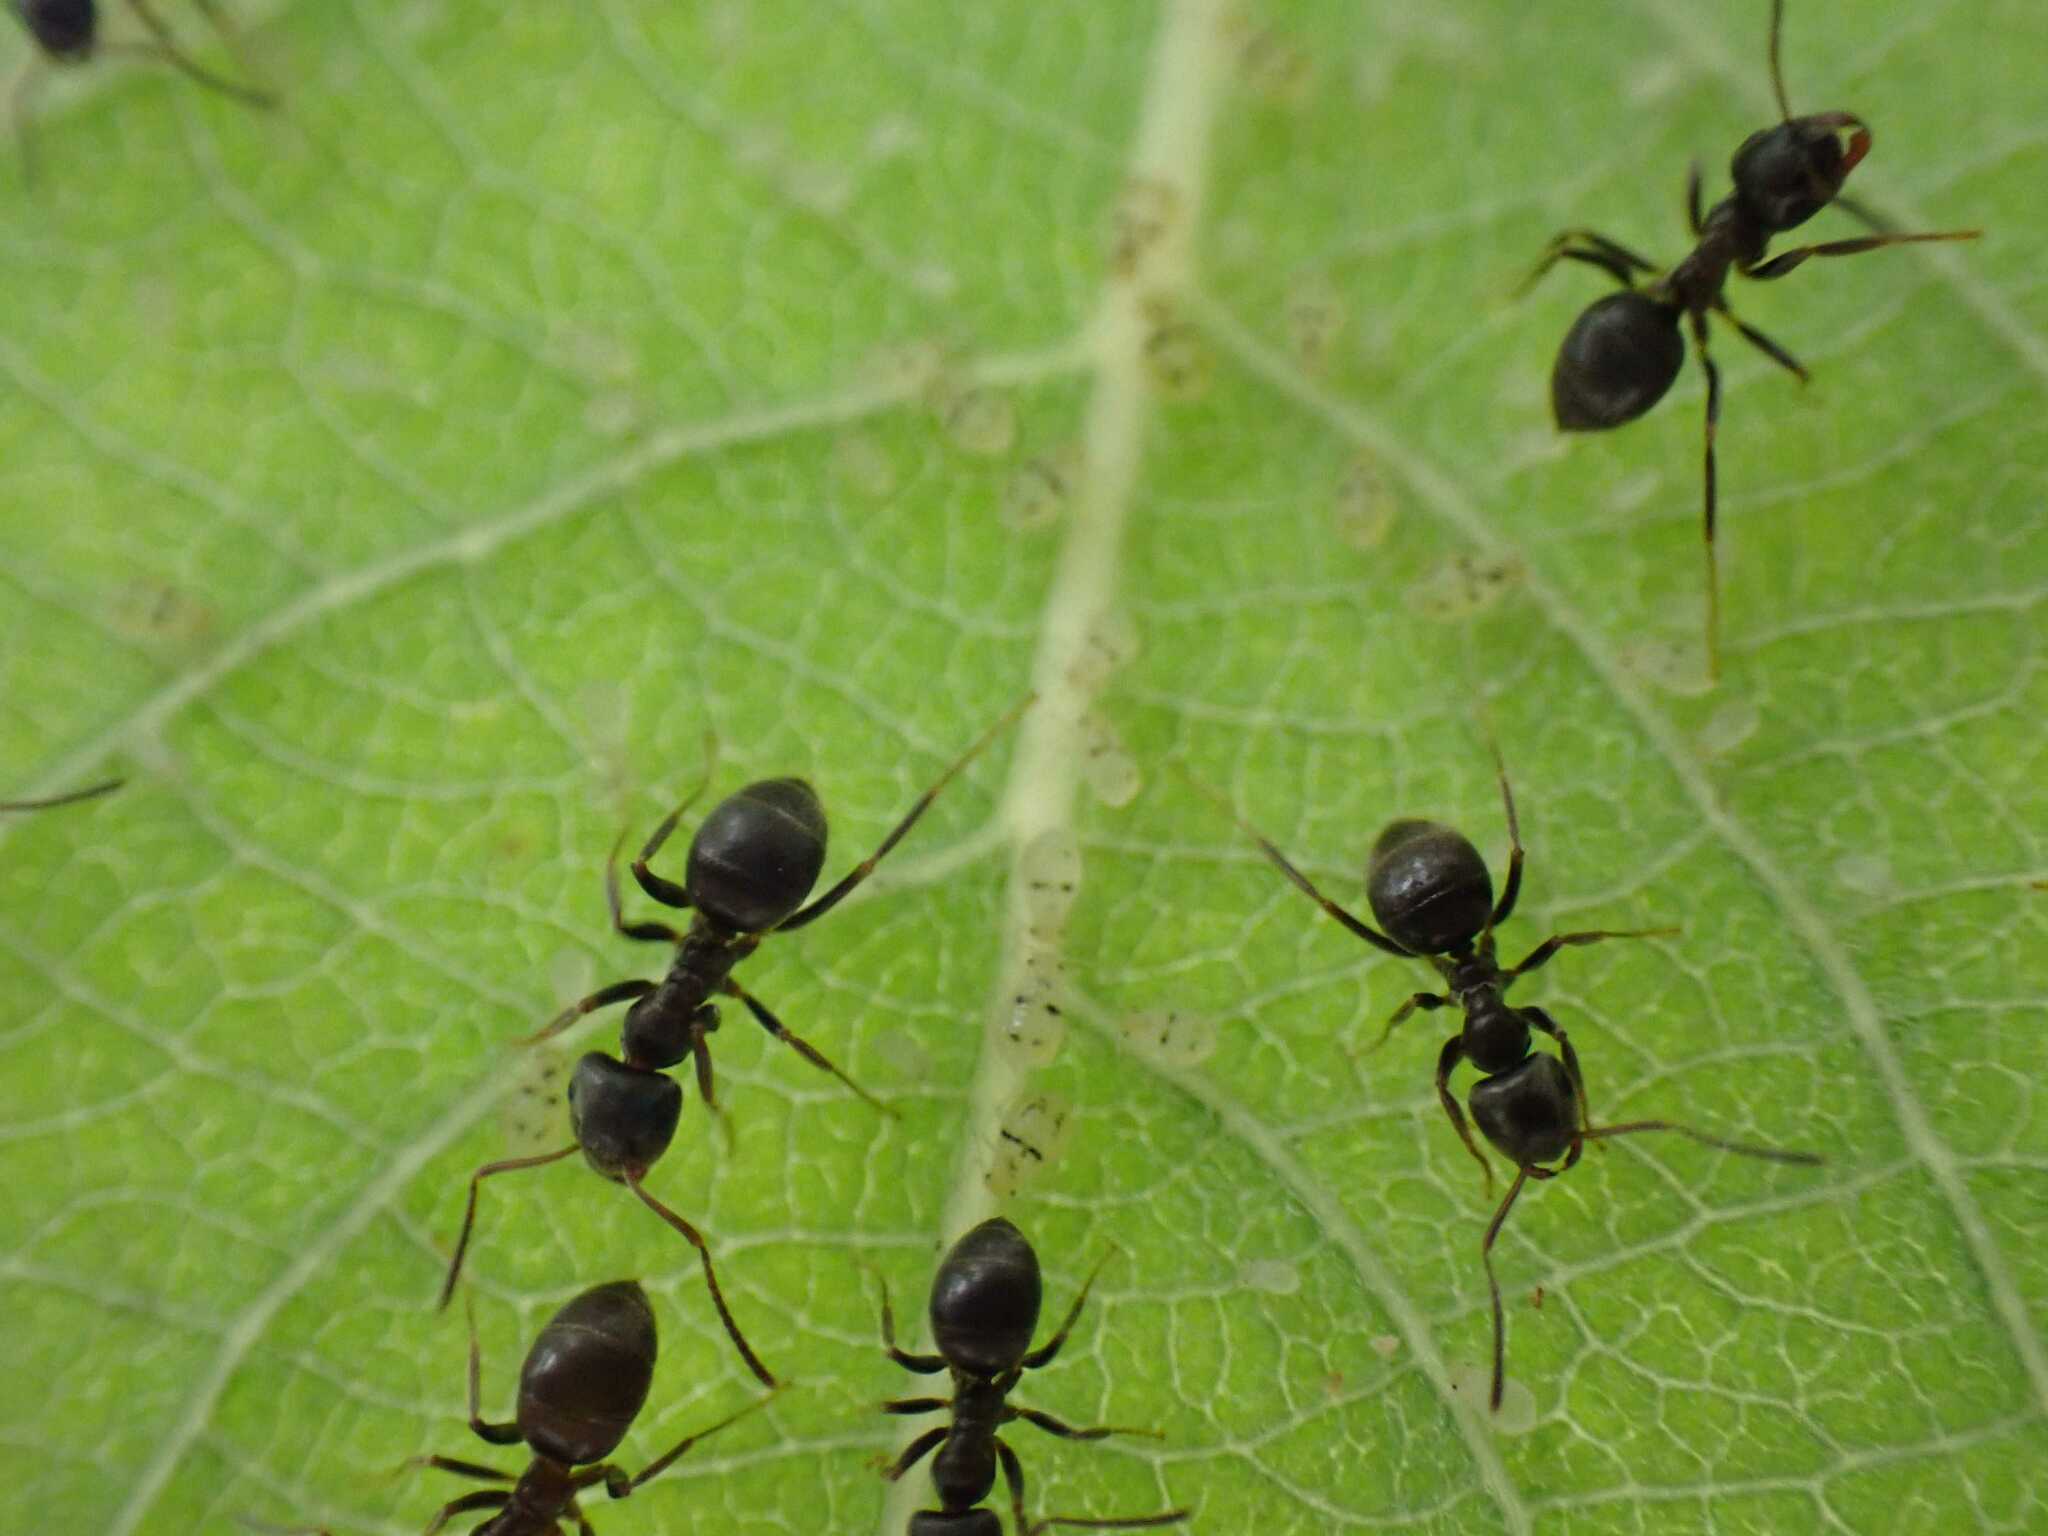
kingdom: Animalia
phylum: Arthropoda
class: Insecta
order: Hemiptera
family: Aphididae
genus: Chaitophorus
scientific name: Chaitophorus salicti
